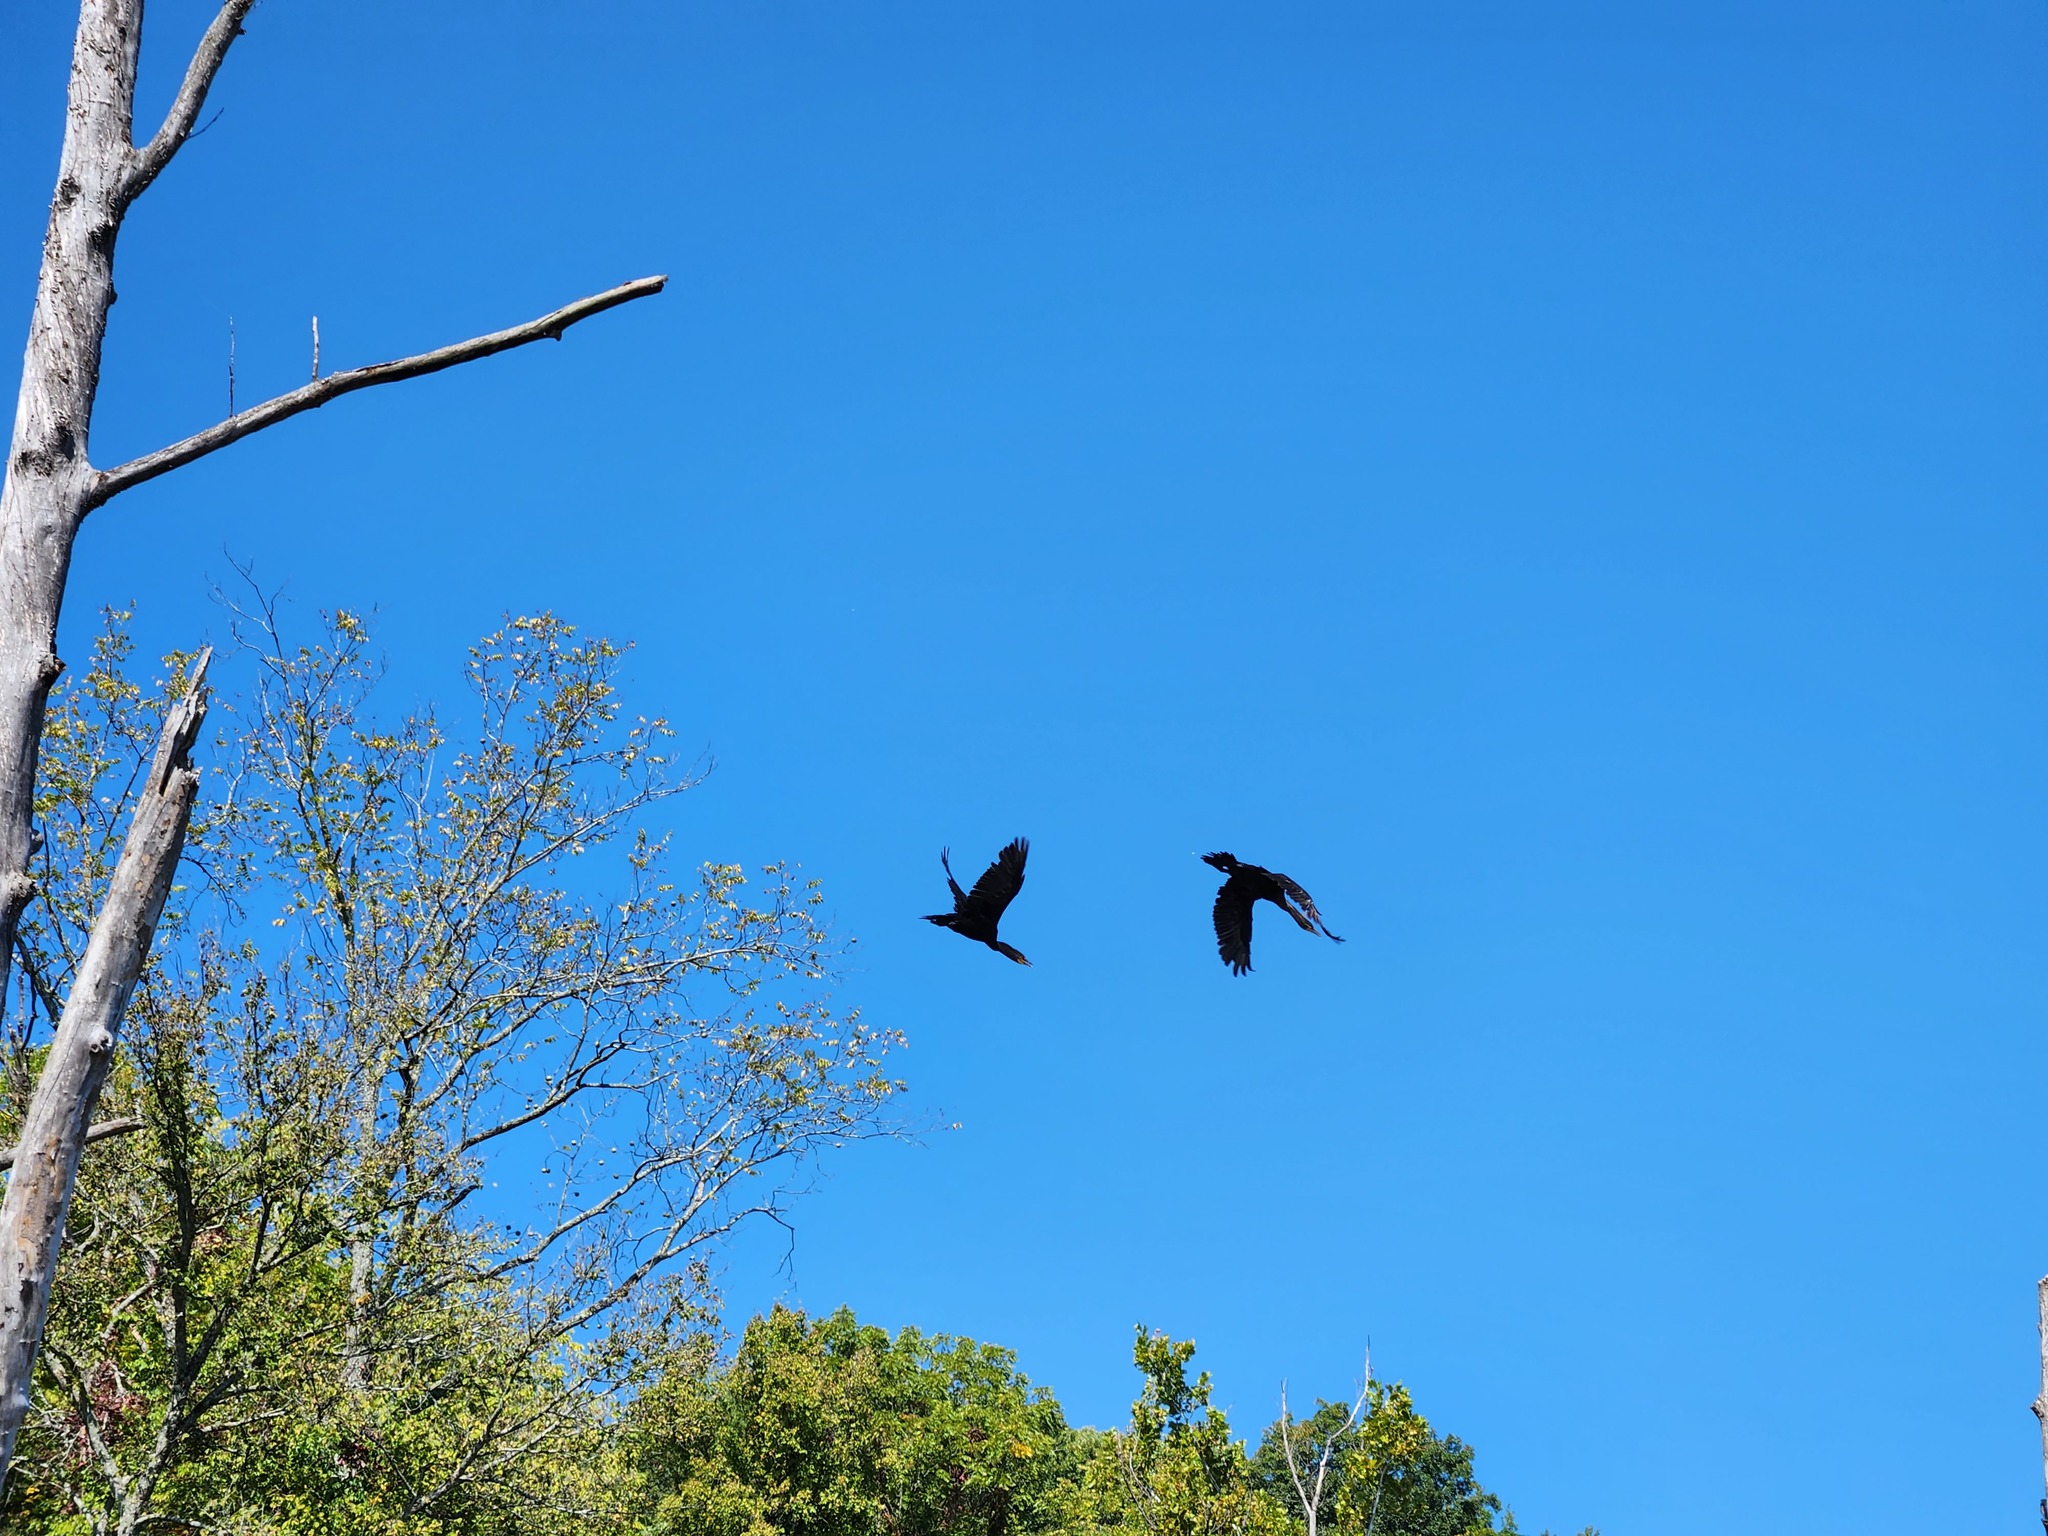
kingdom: Animalia
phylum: Chordata
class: Aves
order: Suliformes
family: Phalacrocoracidae
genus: Phalacrocorax
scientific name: Phalacrocorax auritus
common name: Double-crested cormorant
